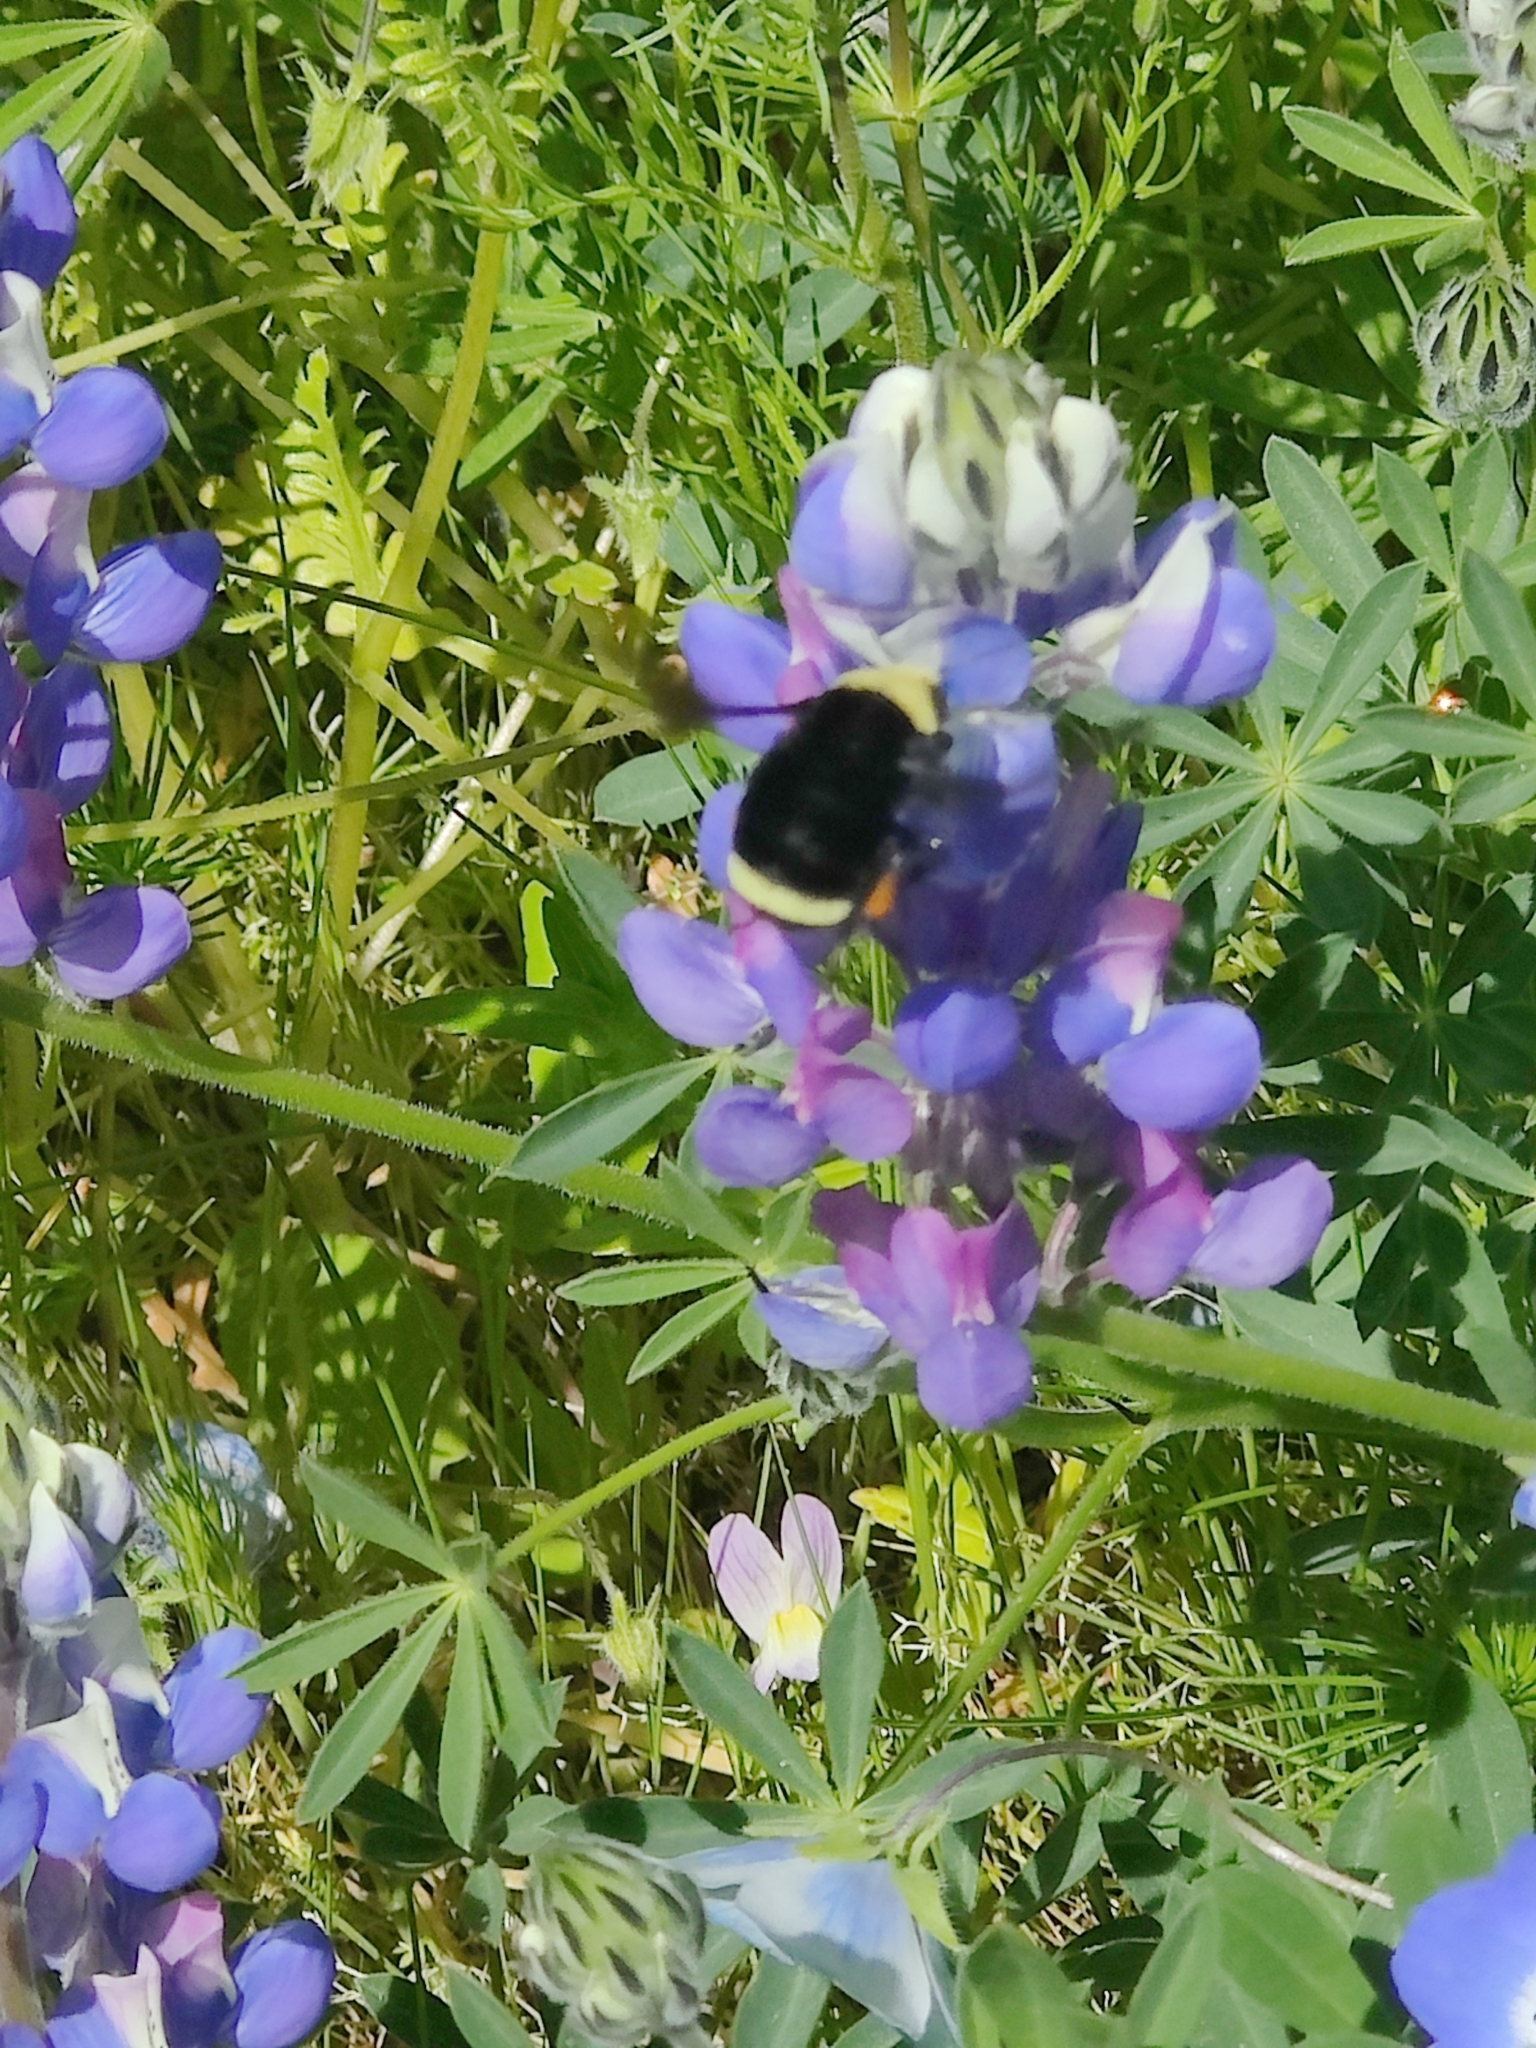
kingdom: Animalia
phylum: Arthropoda
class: Insecta
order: Hymenoptera
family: Apidae
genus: Bombus
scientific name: Bombus vosnesenskii
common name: Vosnesensky bumble bee
